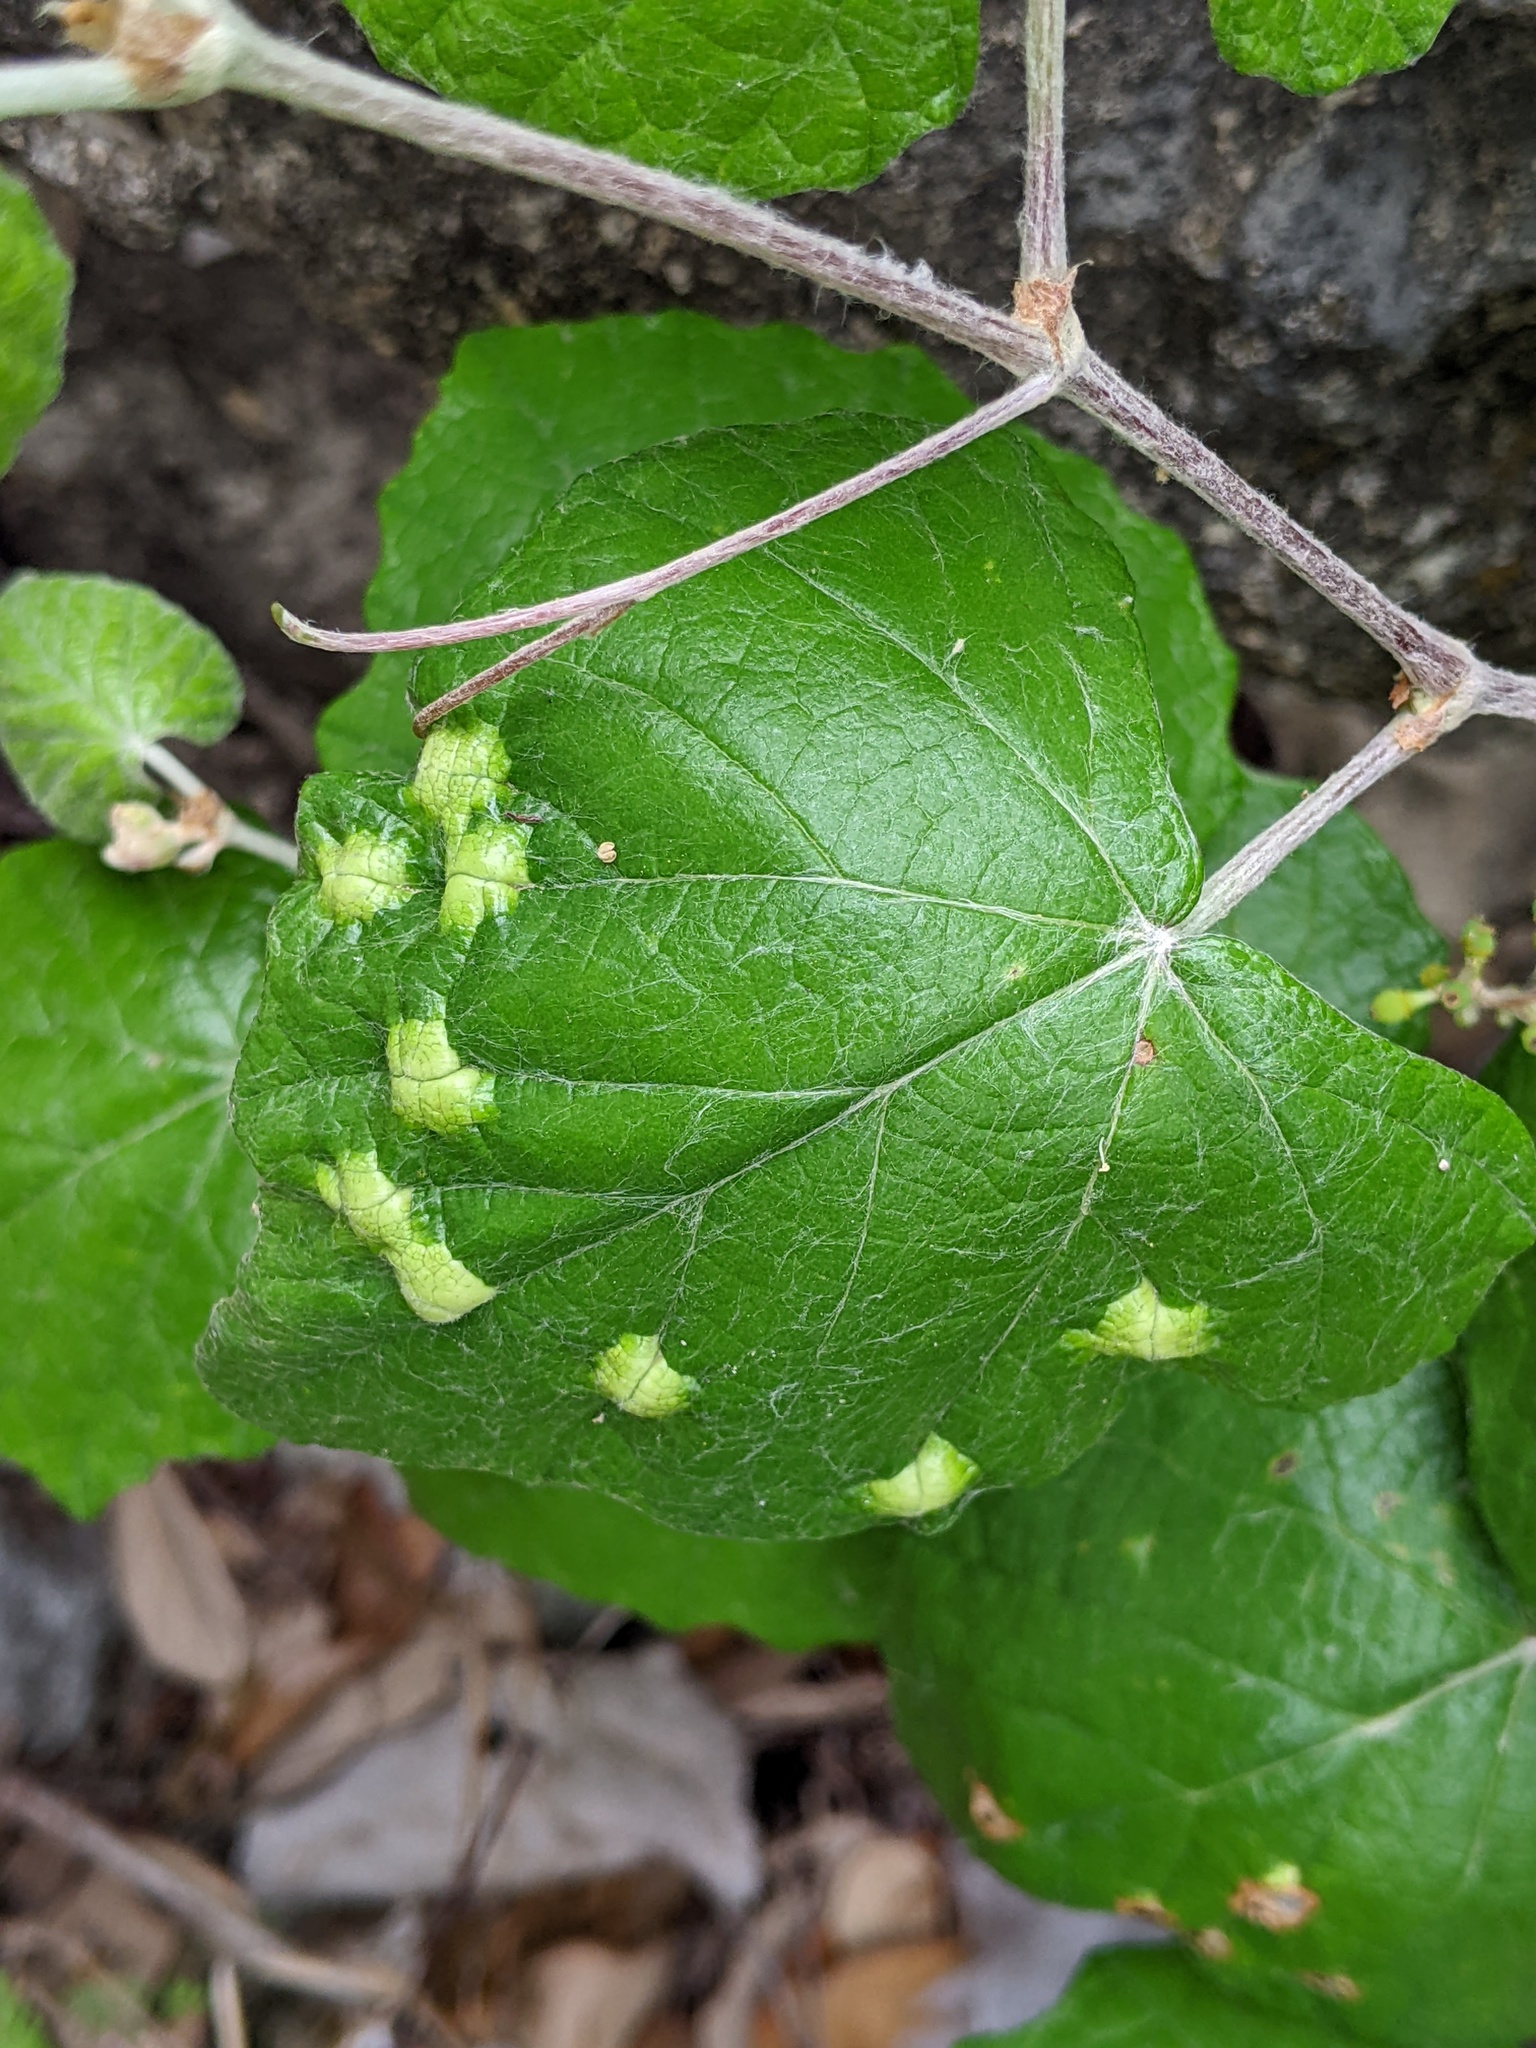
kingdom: Animalia
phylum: Arthropoda
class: Insecta
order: Lepidoptera
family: Heliozelidae
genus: Heliozela
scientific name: Heliozela aesella
